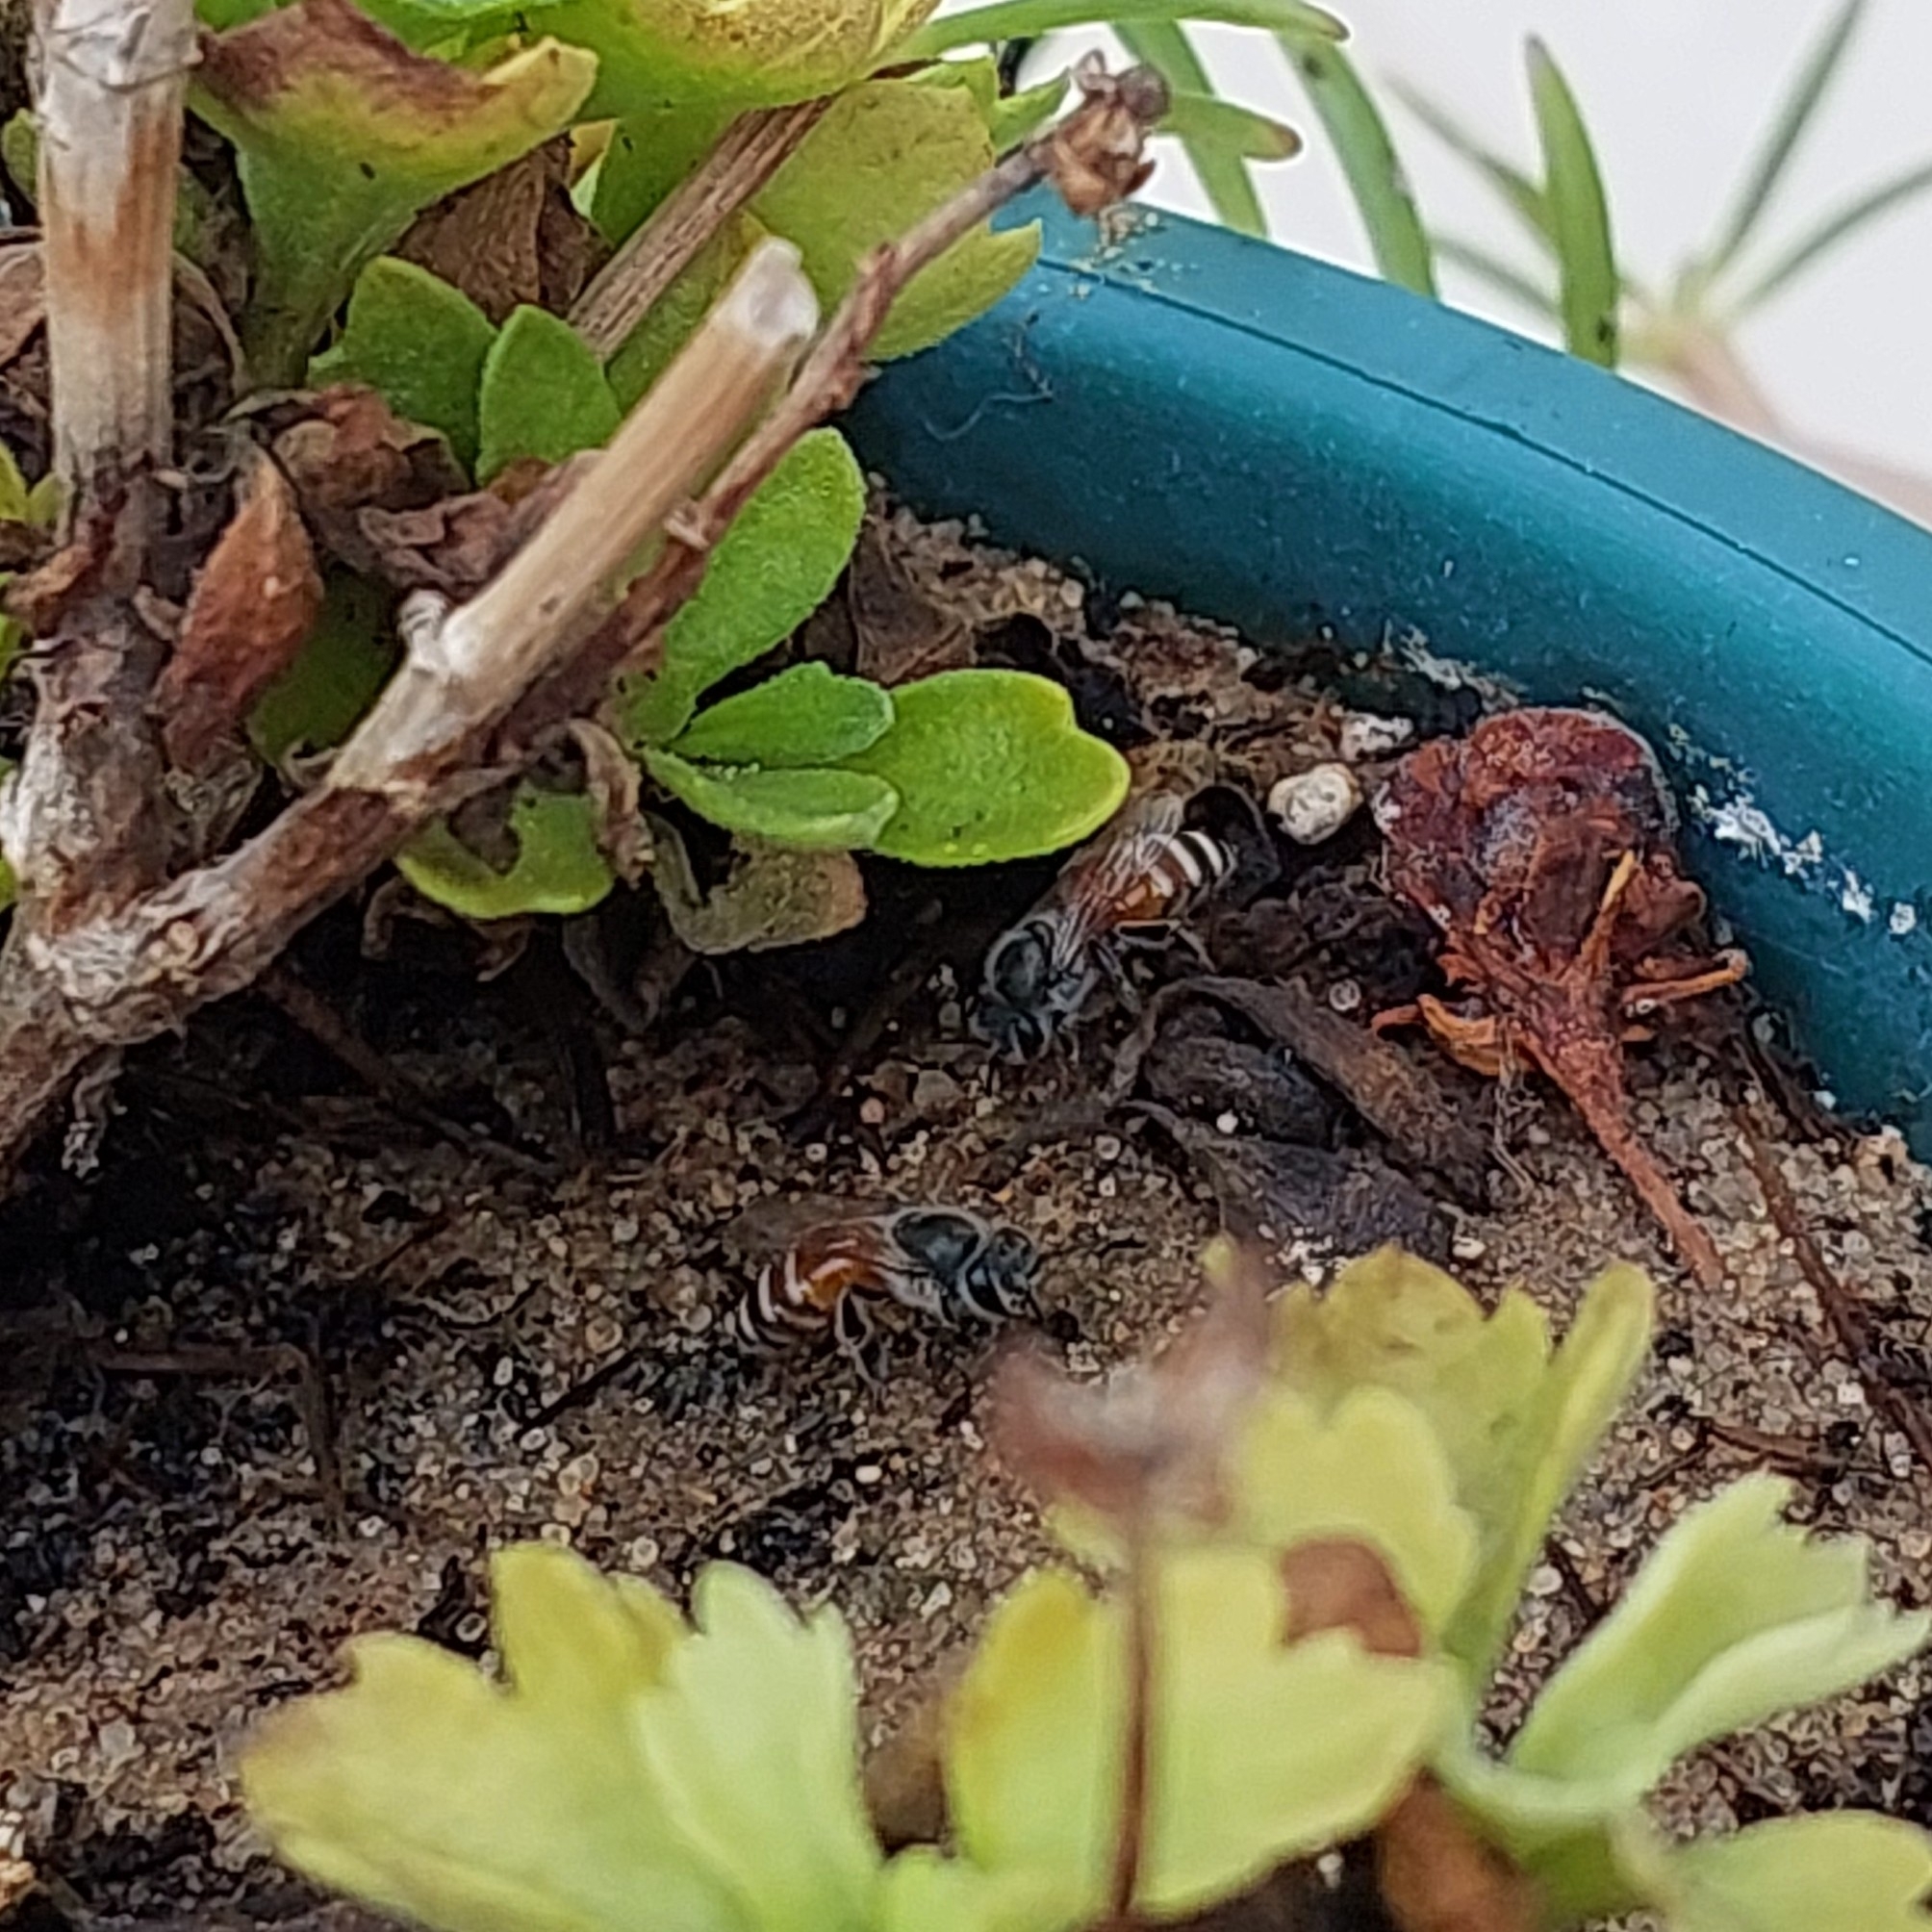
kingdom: Animalia
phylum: Arthropoda
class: Insecta
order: Hymenoptera
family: Apidae
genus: Apis
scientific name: Apis florea
